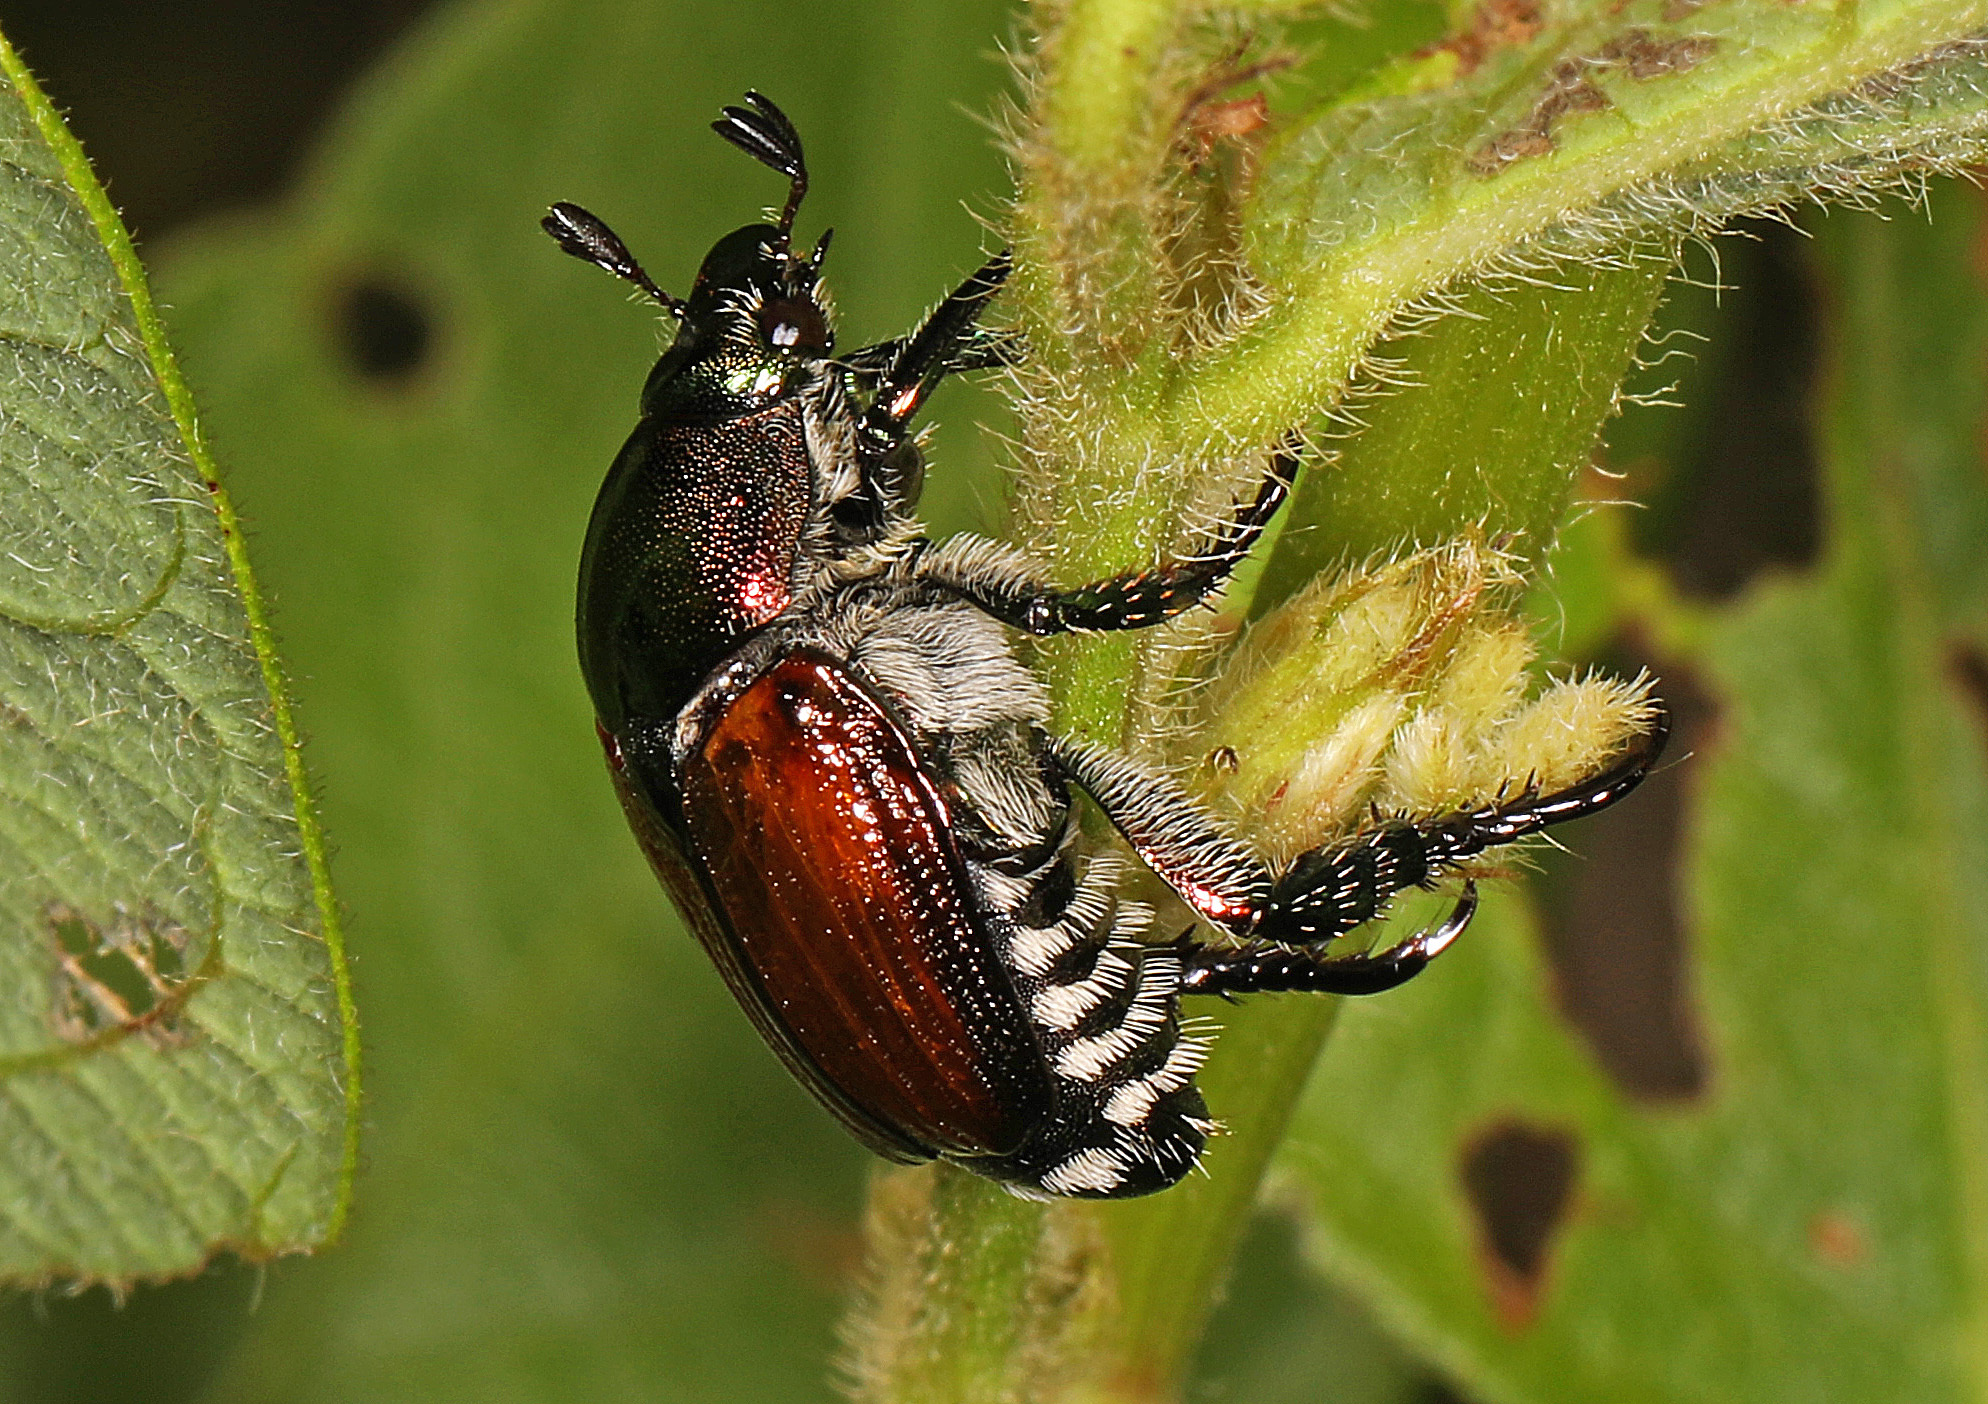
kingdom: Animalia
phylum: Arthropoda
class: Insecta
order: Coleoptera
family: Scarabaeidae
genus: Popillia
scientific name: Popillia japonica
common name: Japanese beetle
